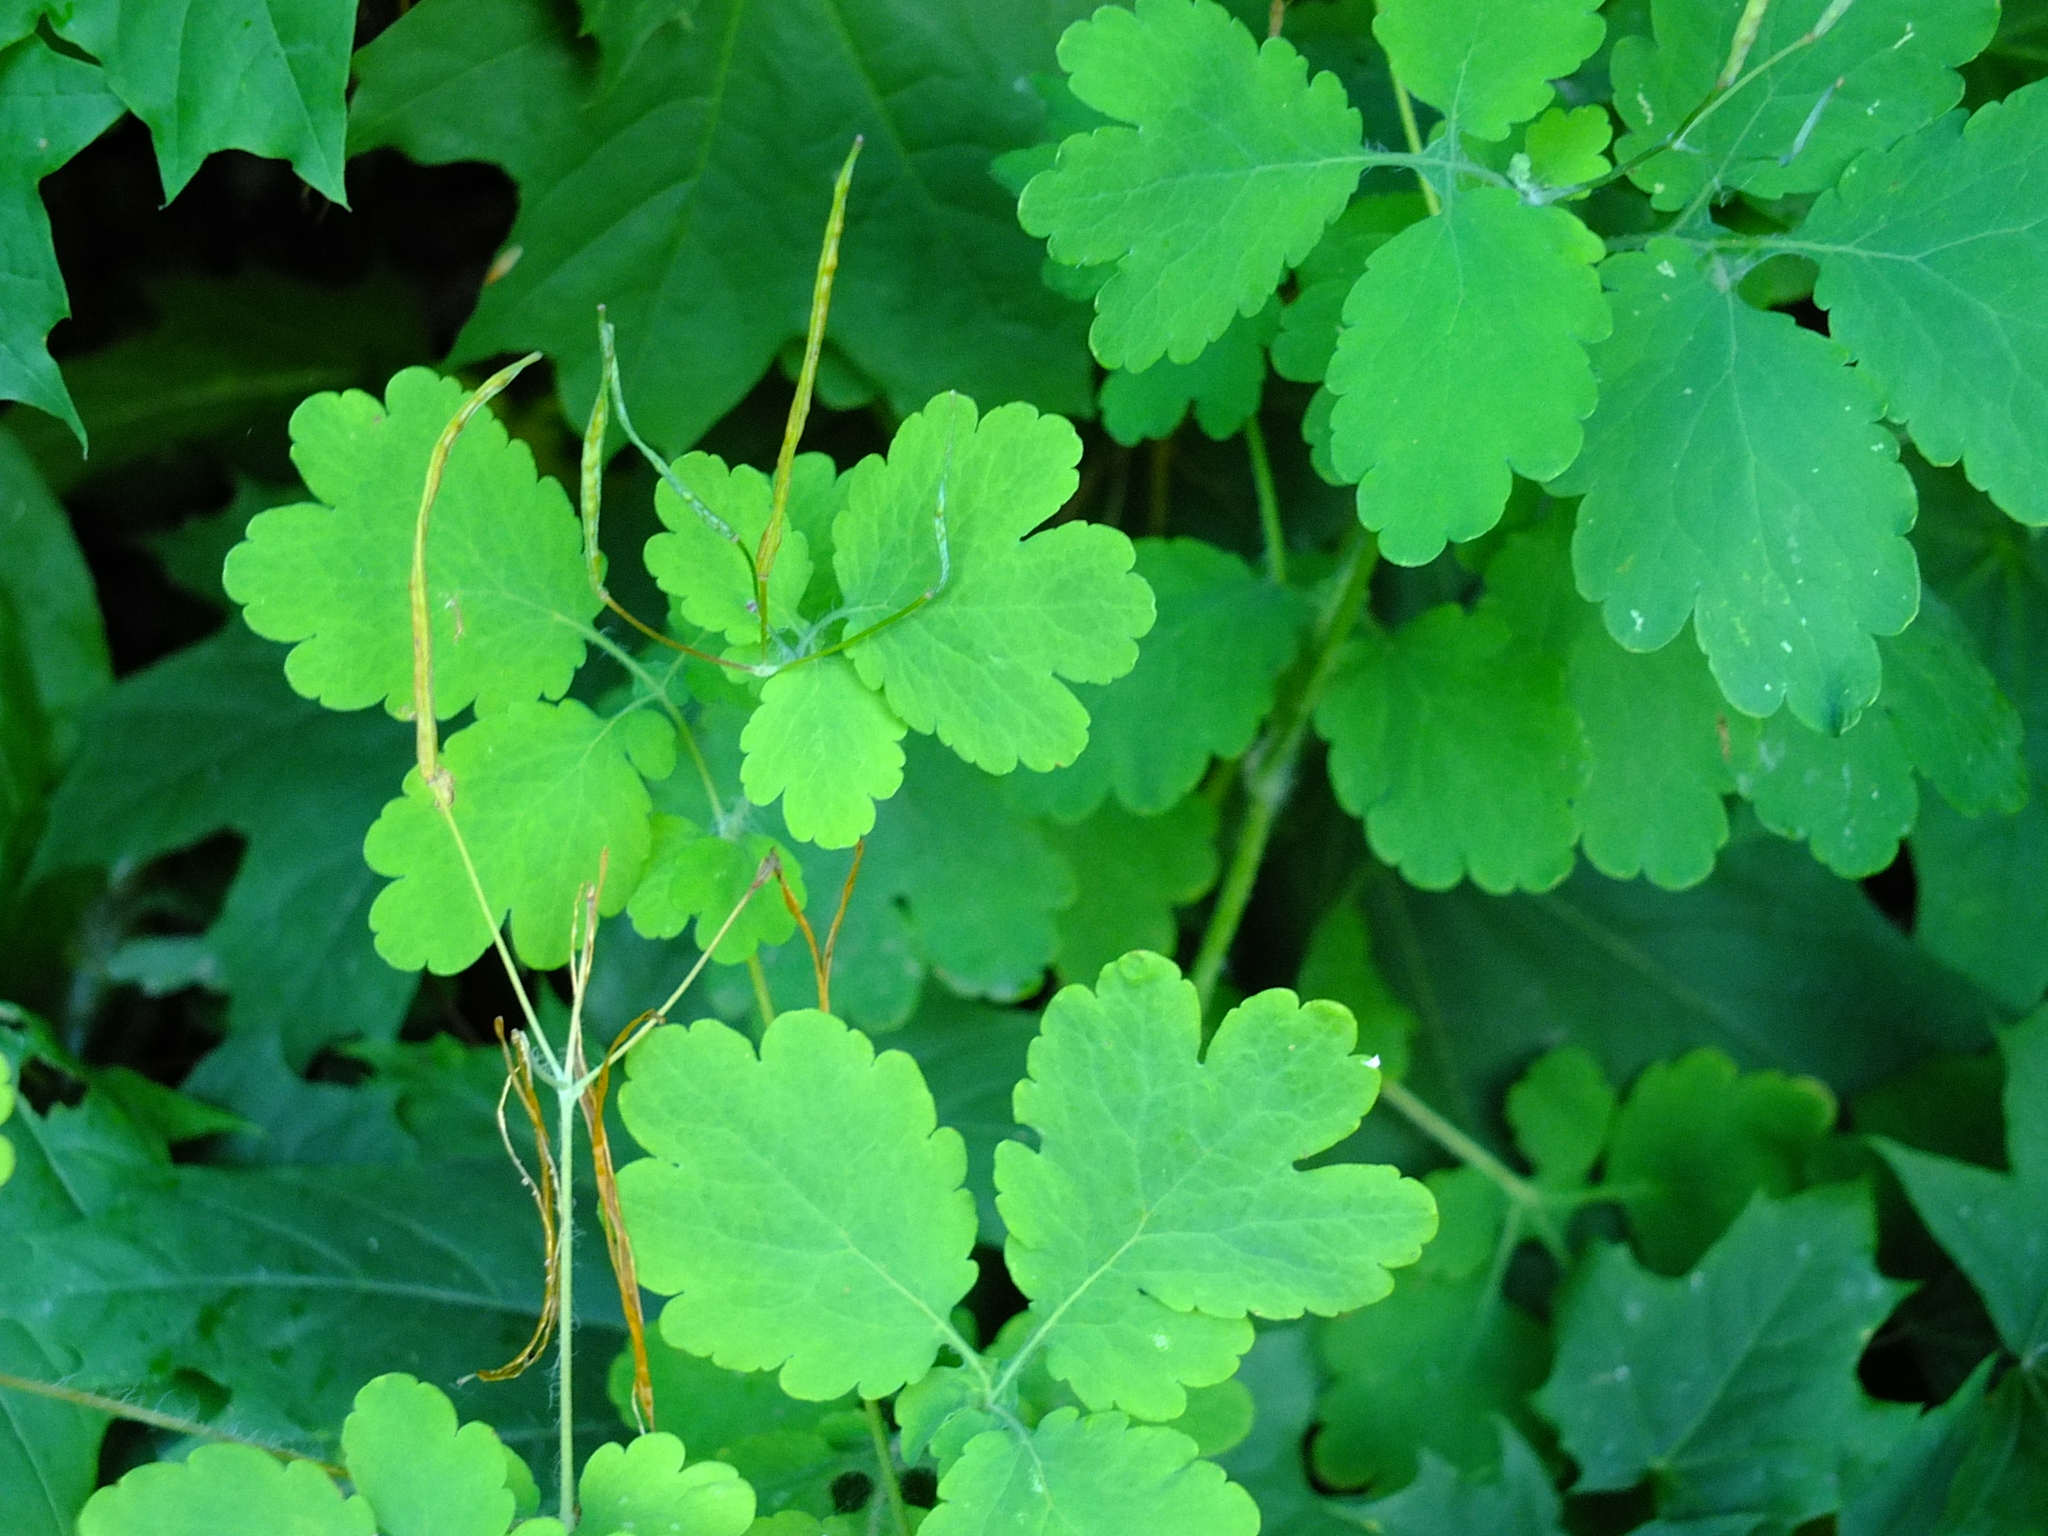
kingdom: Plantae
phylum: Tracheophyta
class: Magnoliopsida
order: Ranunculales
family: Papaveraceae
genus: Chelidonium
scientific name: Chelidonium majus
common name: Greater celandine
